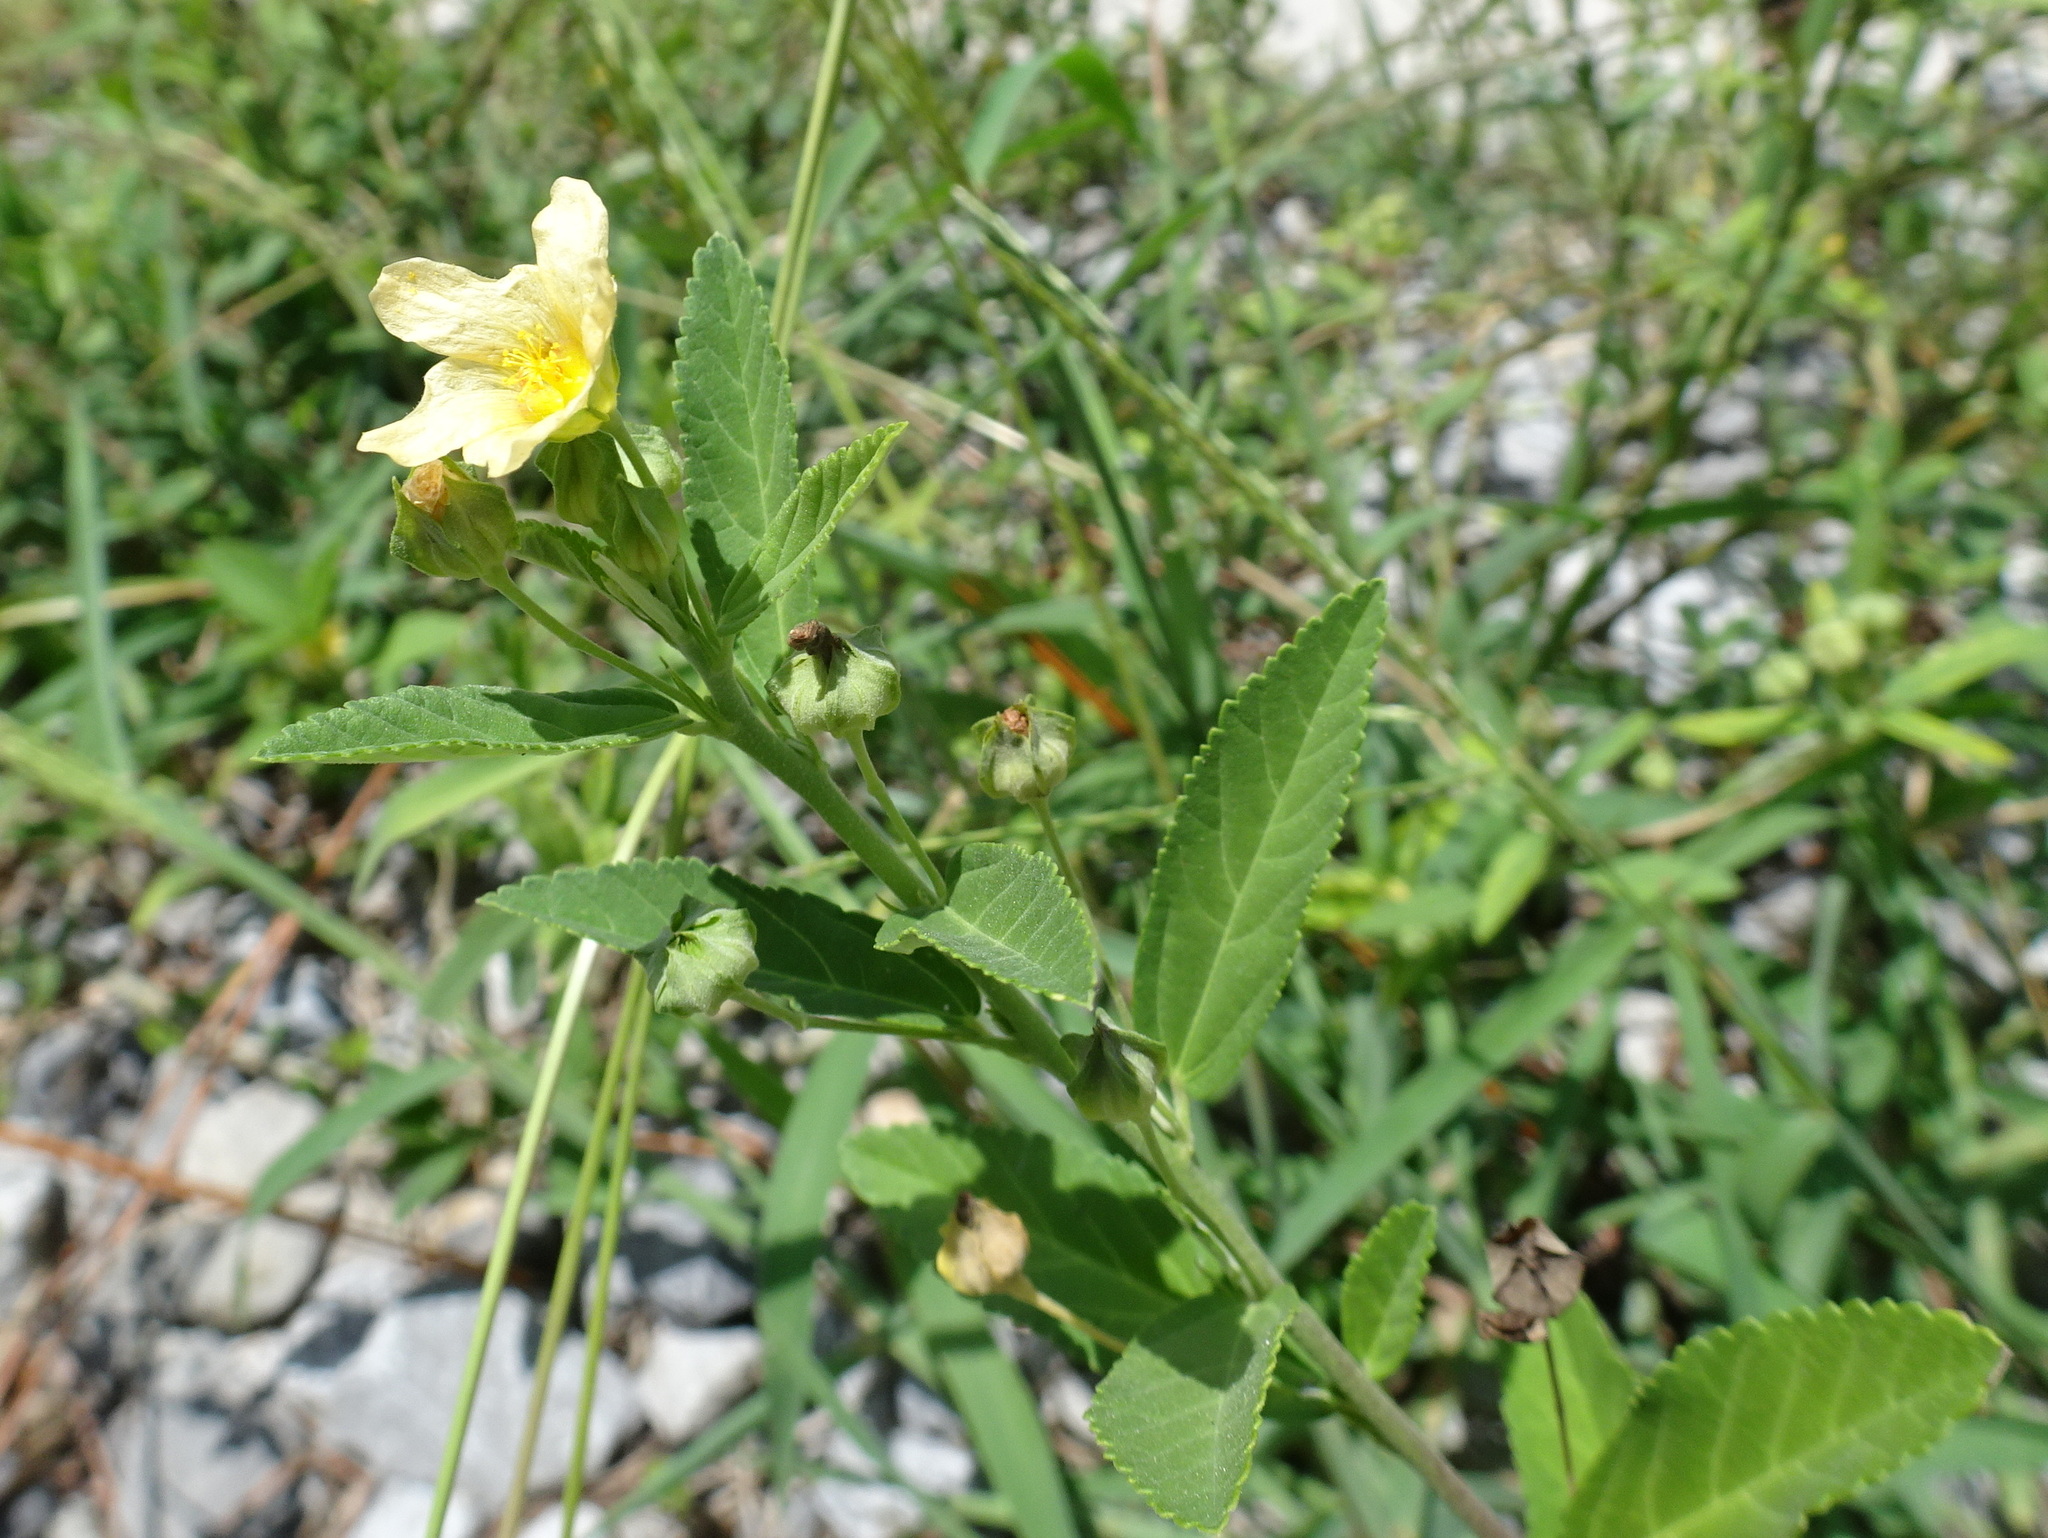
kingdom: Plantae
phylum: Tracheophyta
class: Magnoliopsida
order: Malvales
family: Malvaceae
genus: Sida
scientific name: Sida rhombifolia
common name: Queensland-hemp
